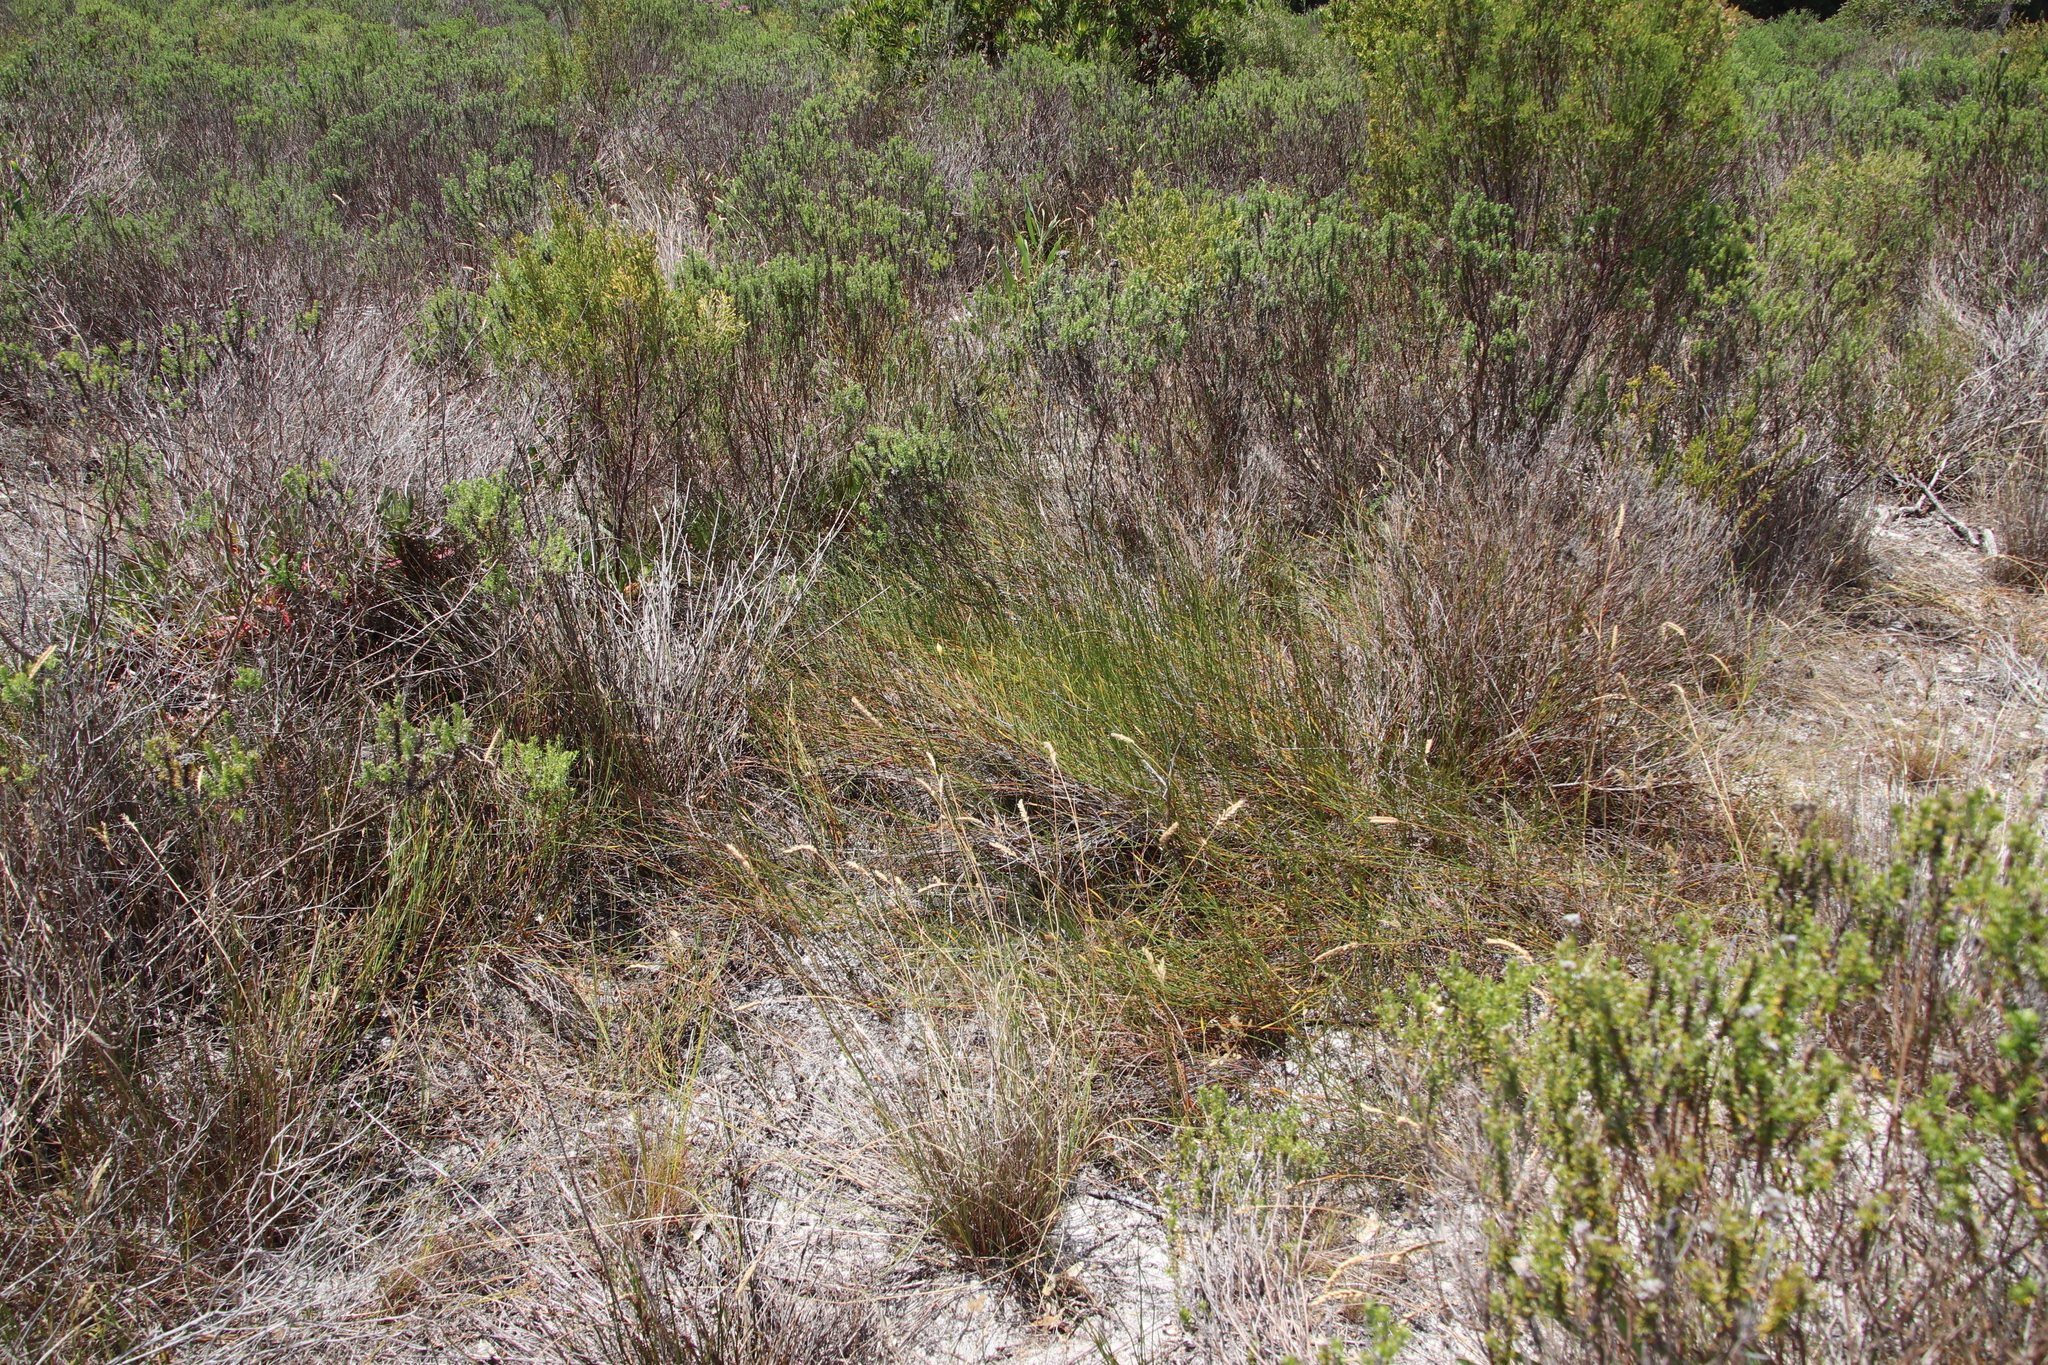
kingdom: Plantae
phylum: Tracheophyta
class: Liliopsida
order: Poales
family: Restionaceae
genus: Willdenowia
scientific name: Willdenowia sulcata
